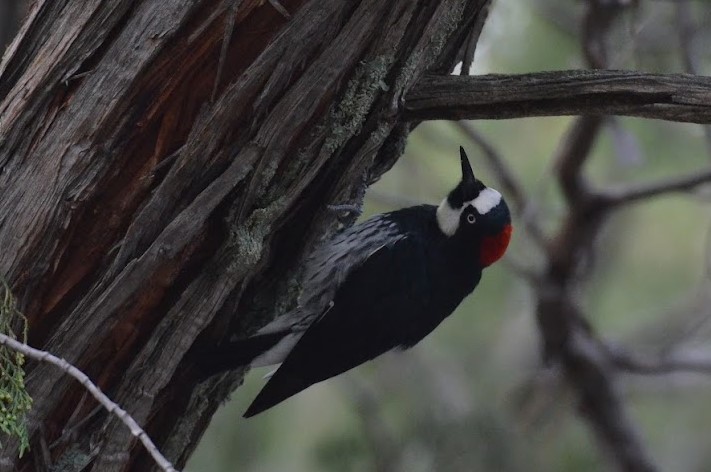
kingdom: Animalia
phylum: Chordata
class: Aves
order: Piciformes
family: Picidae
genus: Melanerpes
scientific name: Melanerpes formicivorus
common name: Acorn woodpecker
